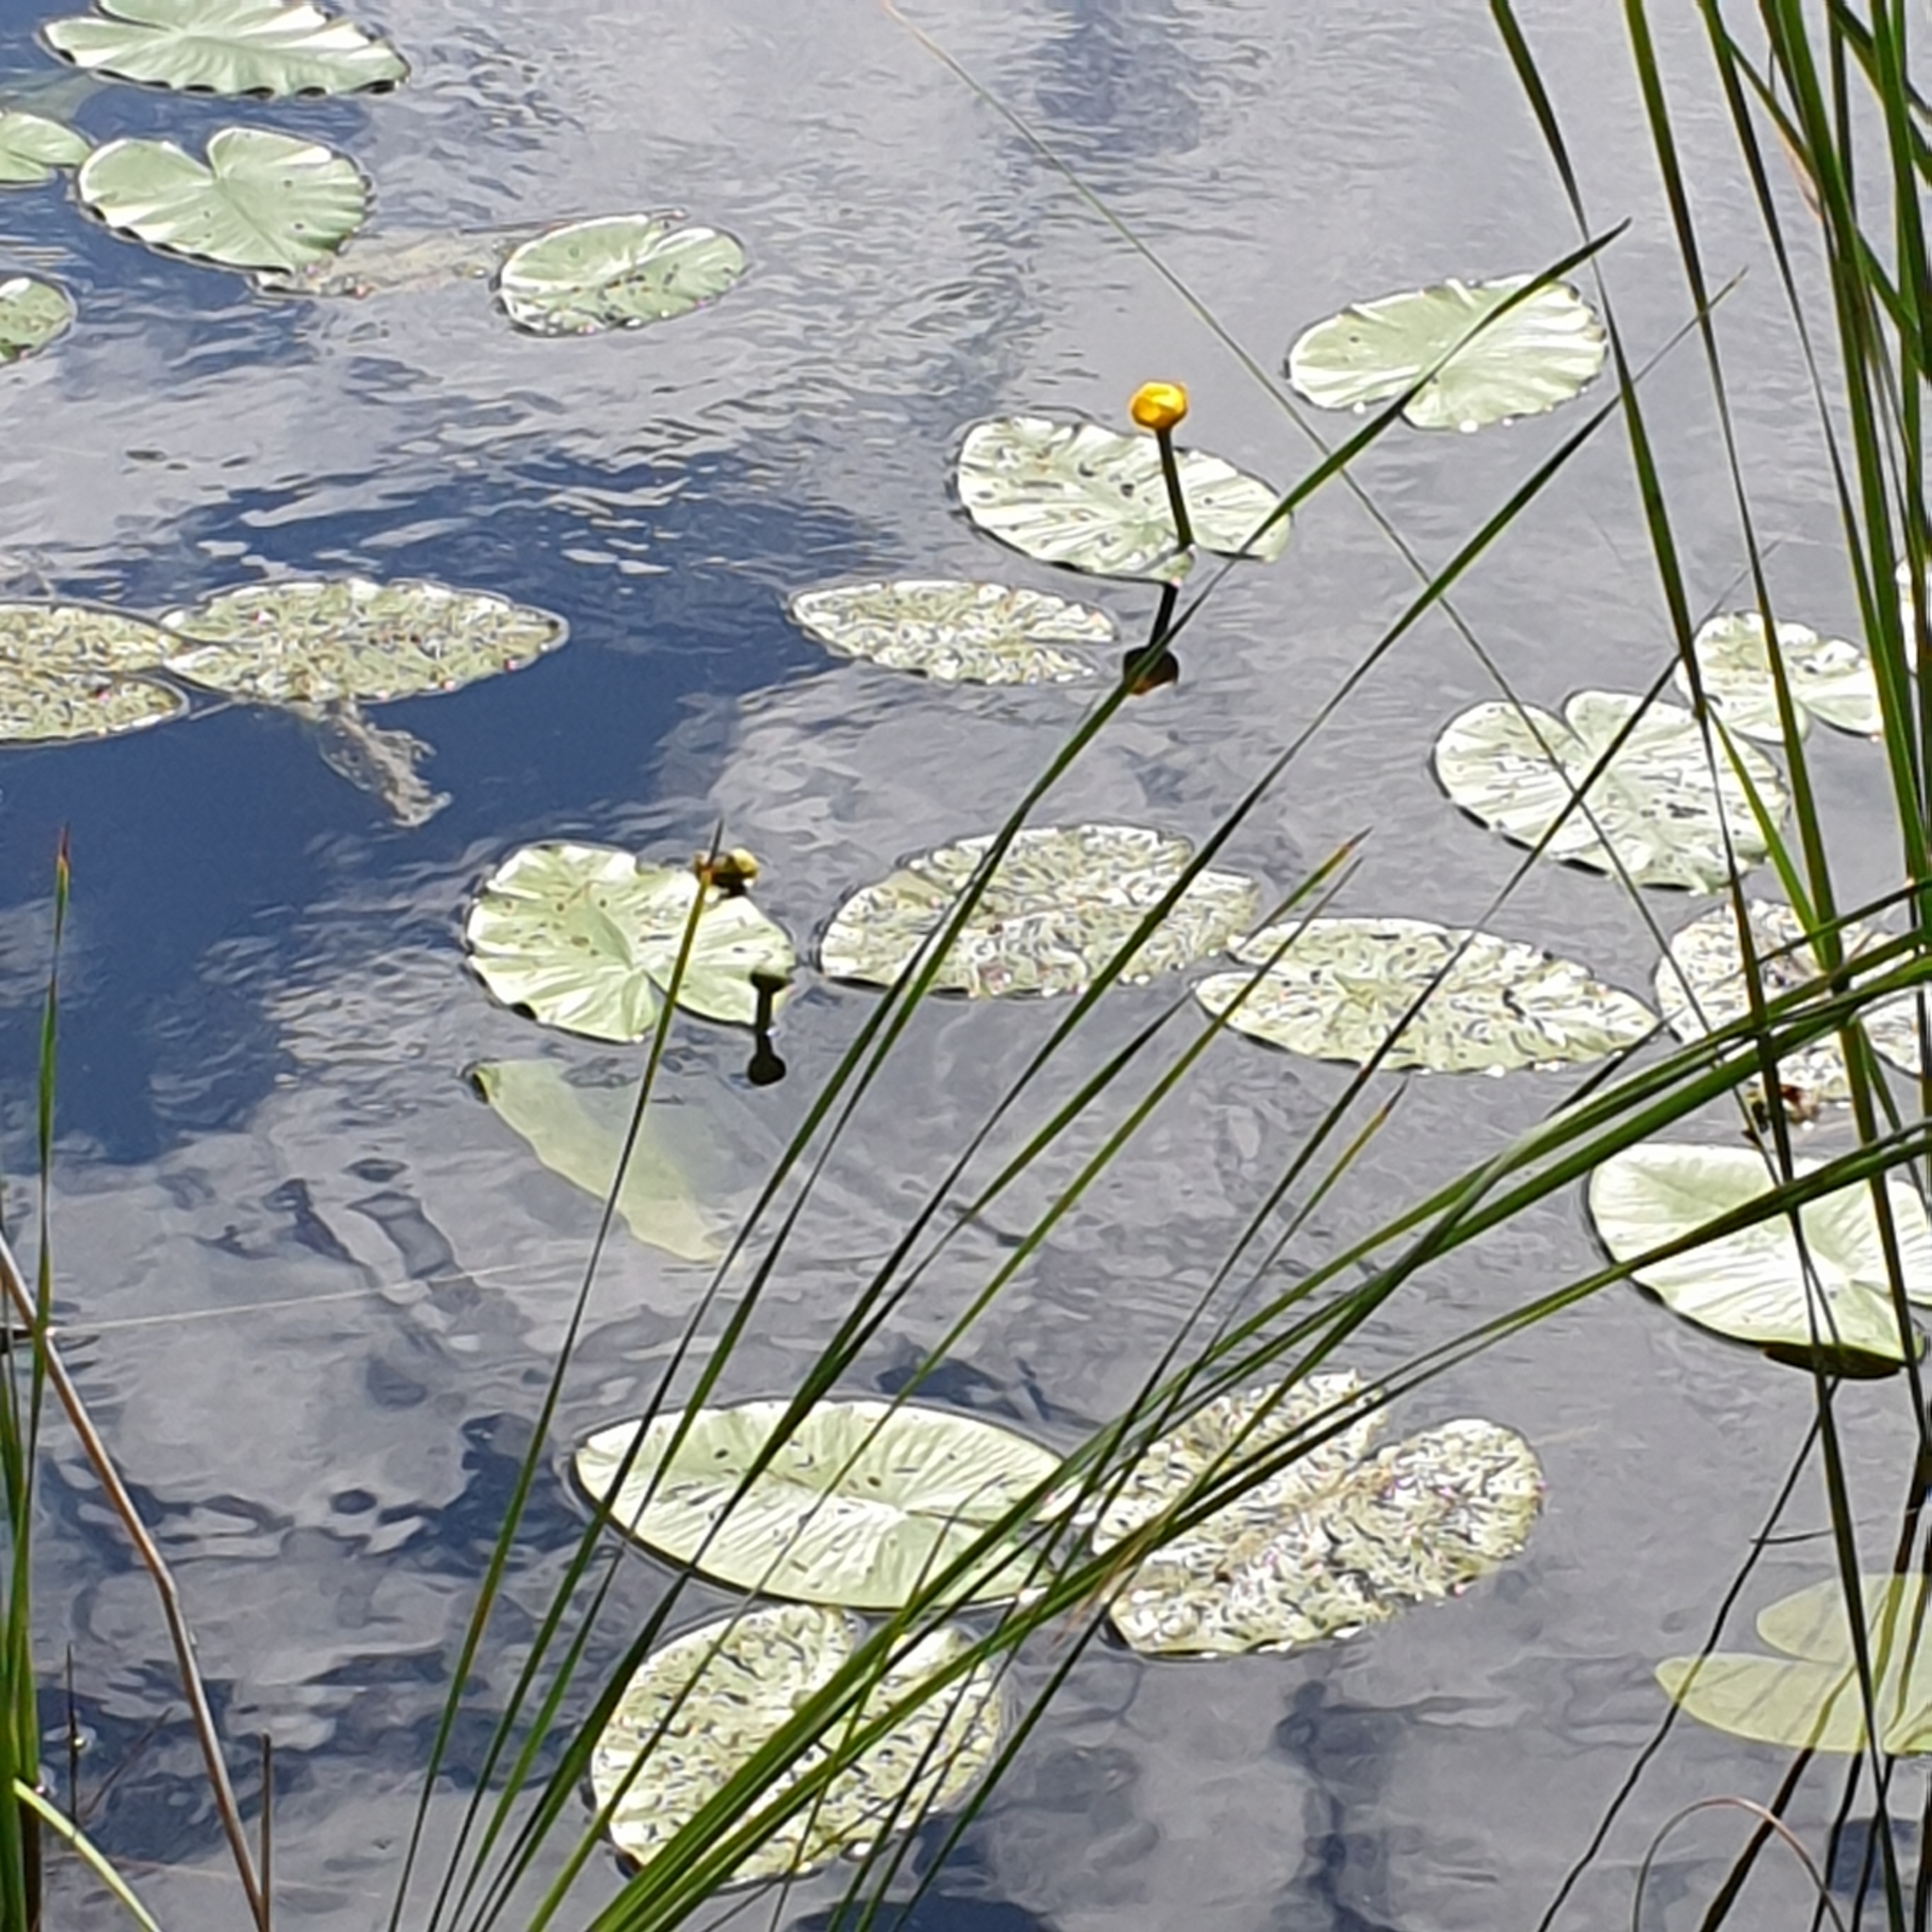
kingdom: Plantae
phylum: Tracheophyta
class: Magnoliopsida
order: Nymphaeales
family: Nymphaeaceae
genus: Nuphar
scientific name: Nuphar lutea
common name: Yellow water-lily
